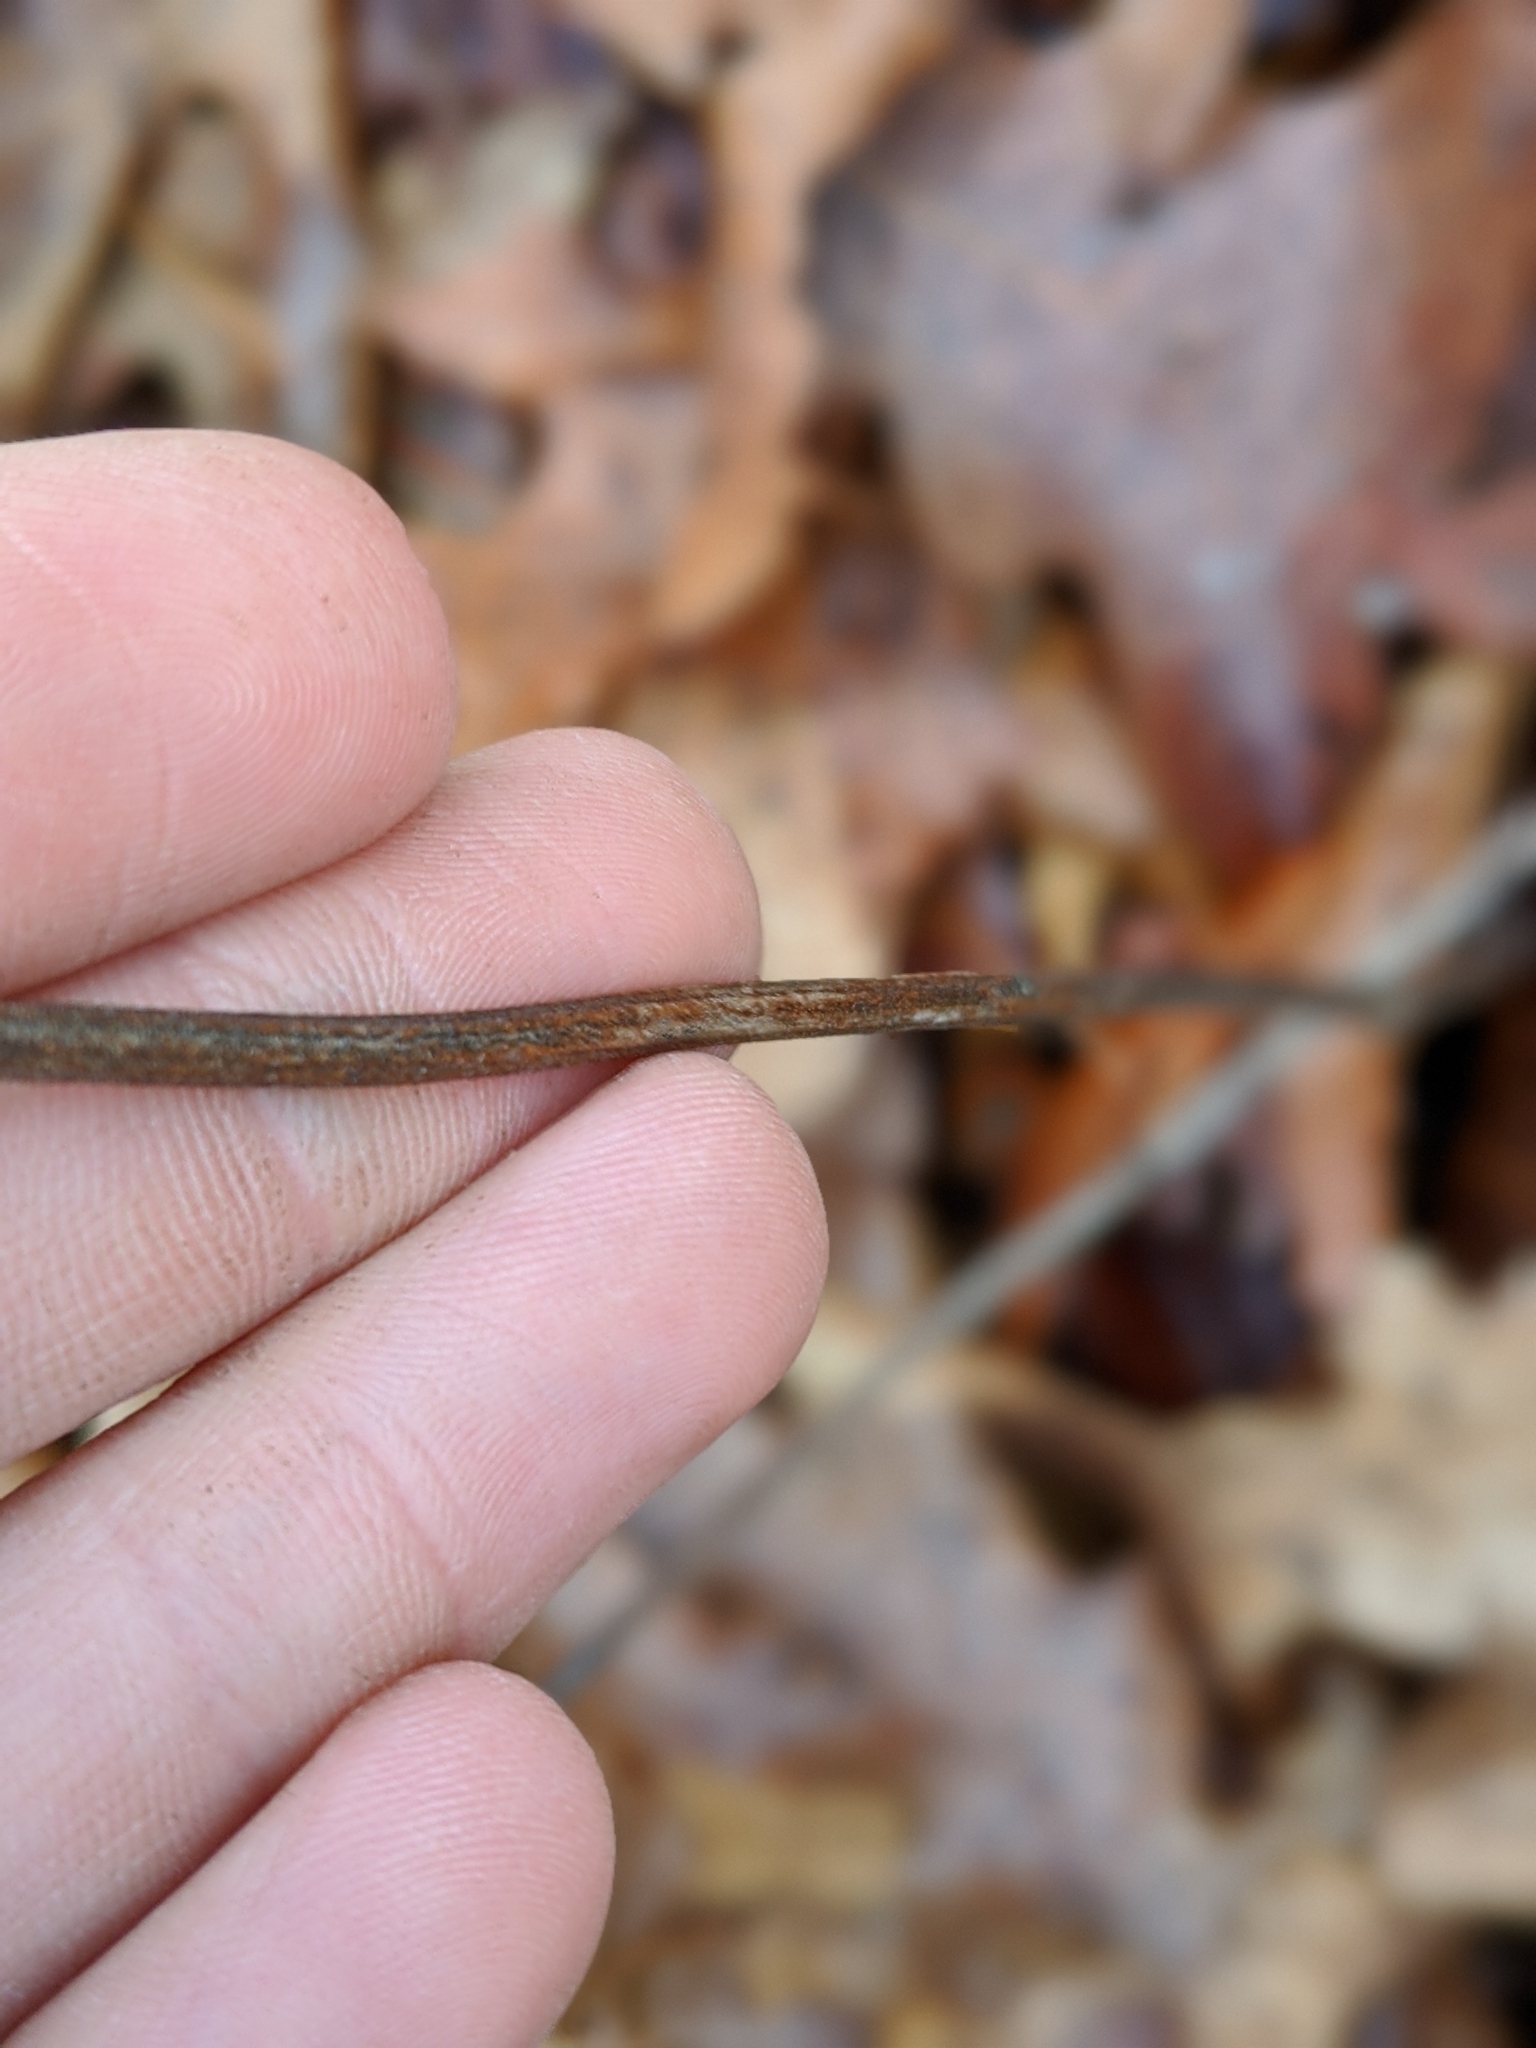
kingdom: Plantae
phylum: Tracheophyta
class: Magnoliopsida
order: Asterales
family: Asteraceae
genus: Parthenium
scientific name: Parthenium integrifolium
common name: American feverfew
